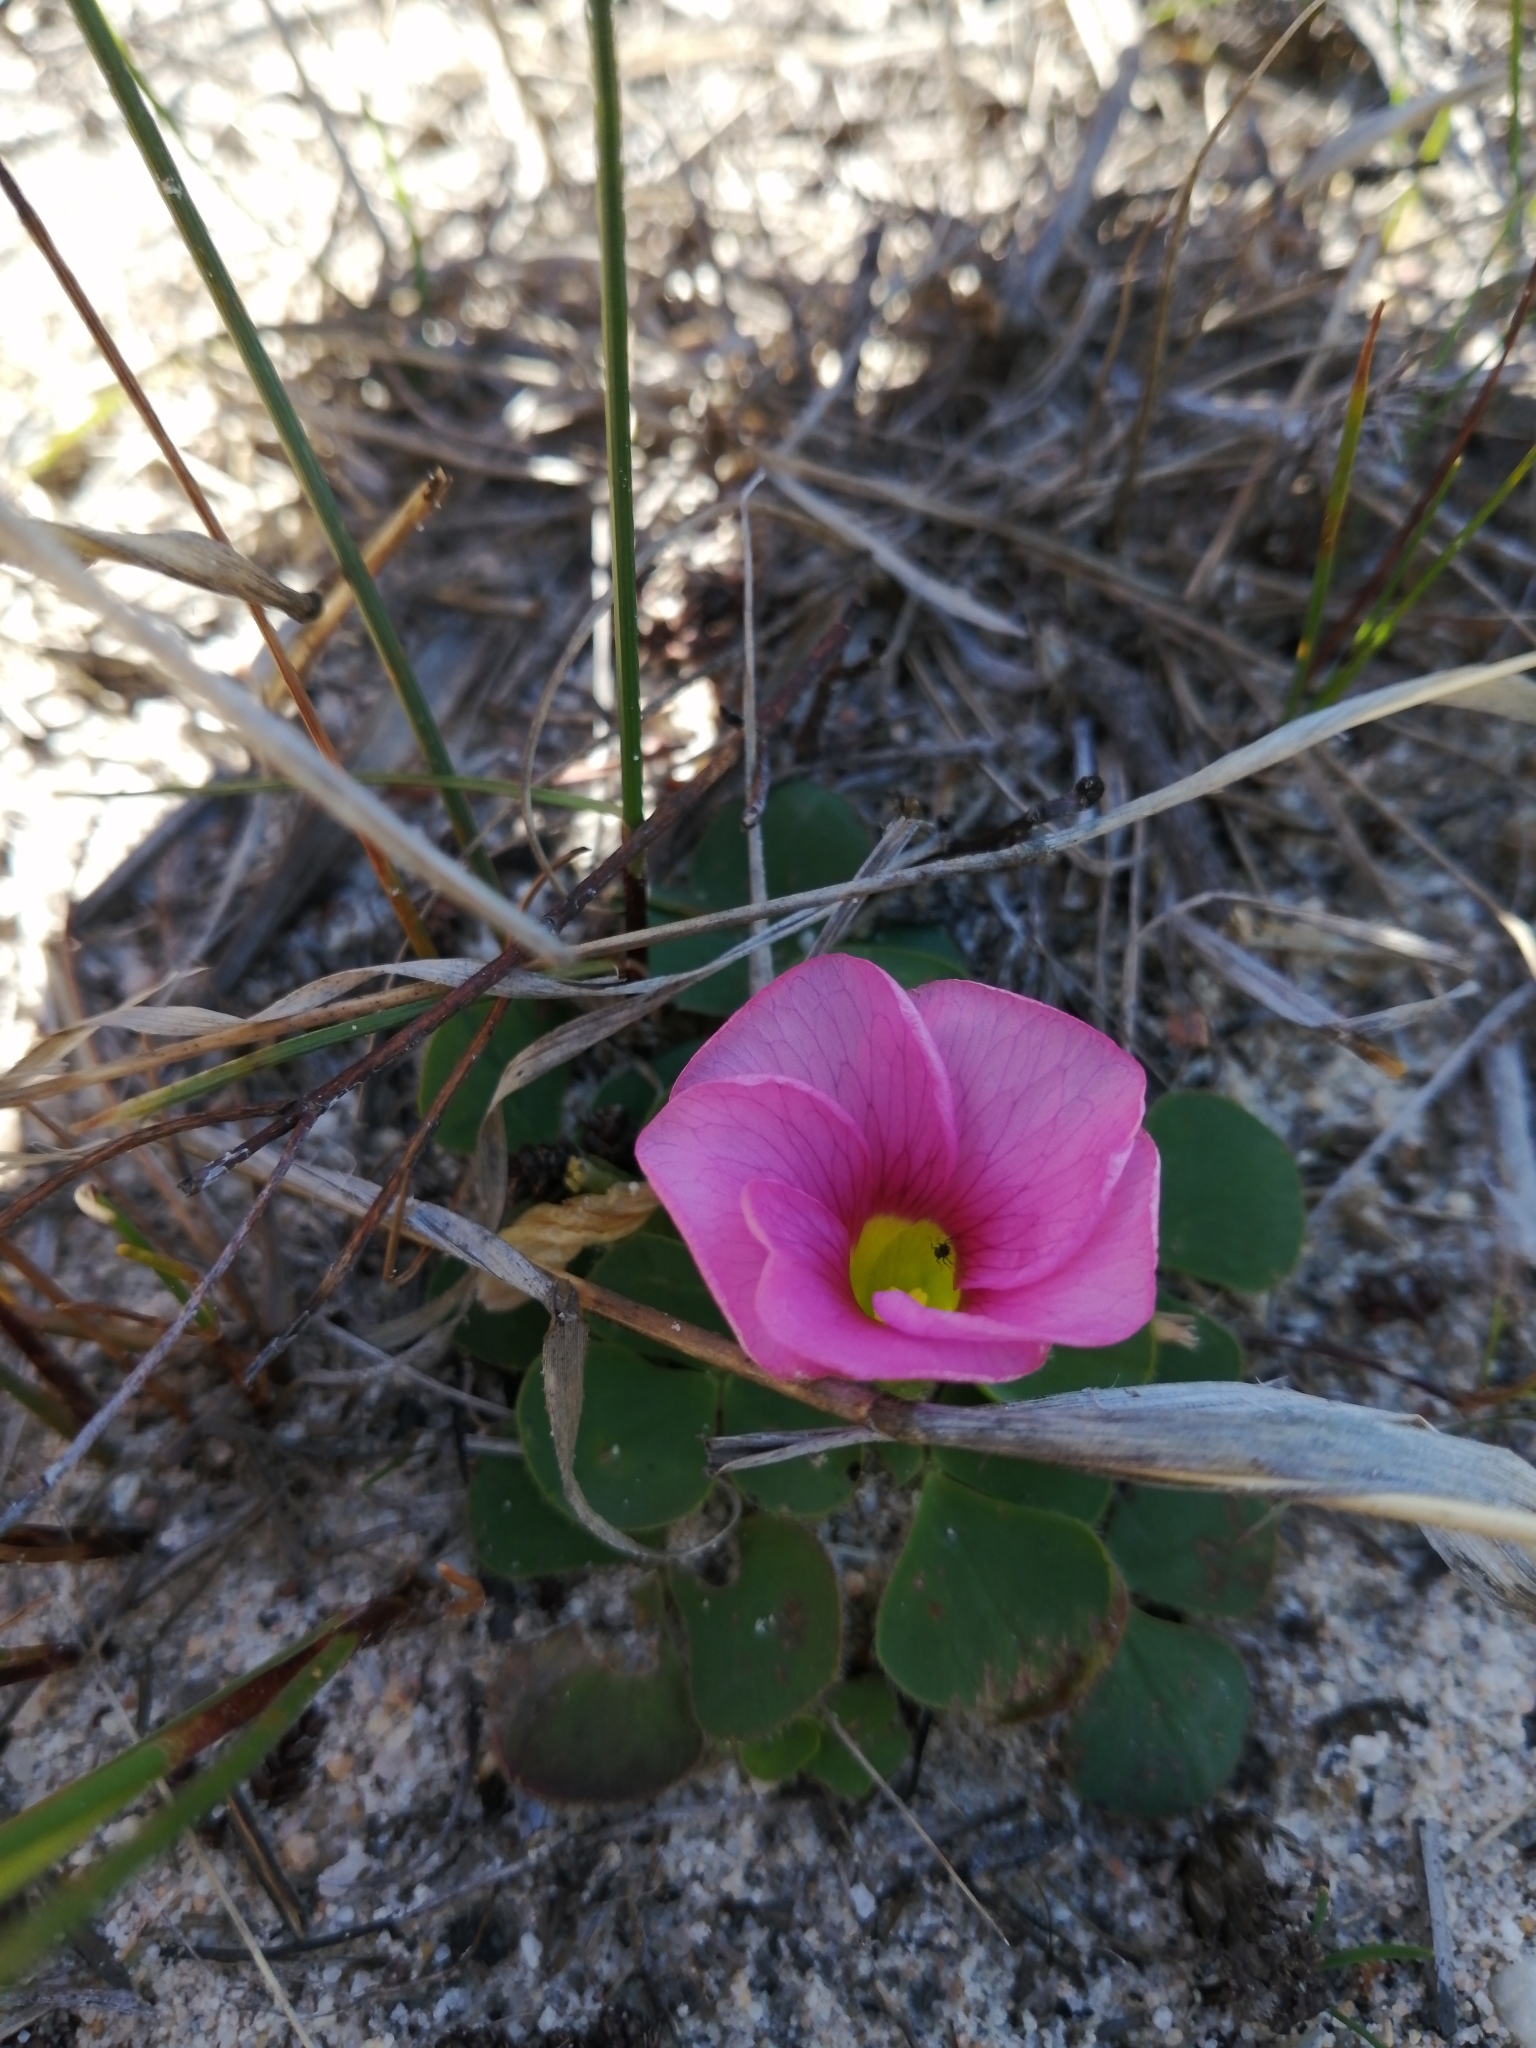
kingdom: Plantae
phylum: Tracheophyta
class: Magnoliopsida
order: Oxalidales
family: Oxalidaceae
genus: Oxalis
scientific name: Oxalis purpurea
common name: Purple woodsorrel
